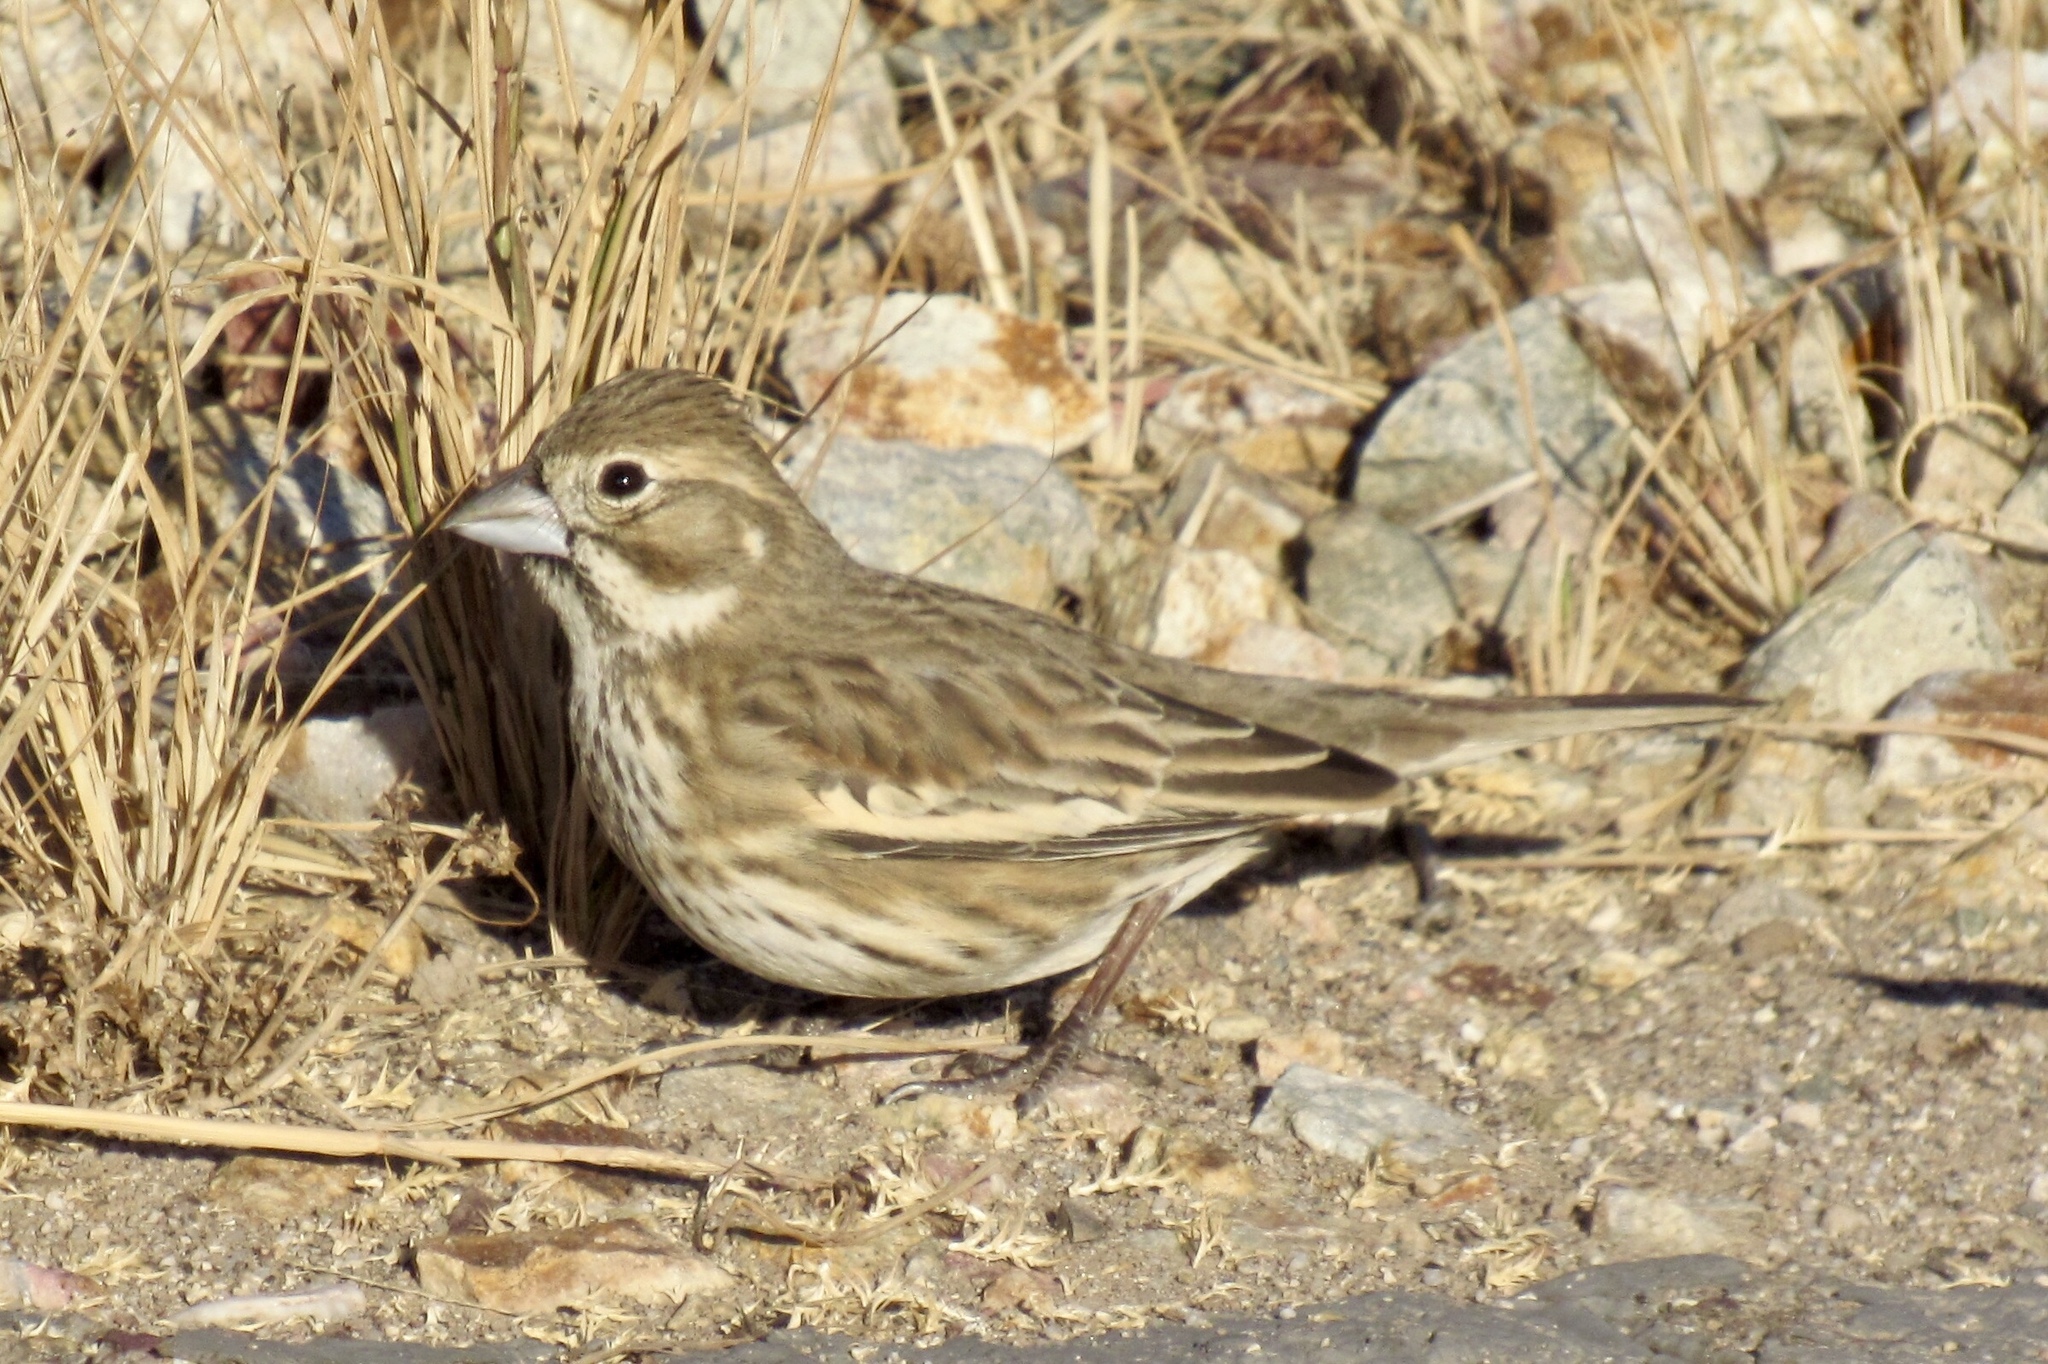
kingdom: Animalia
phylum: Chordata
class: Aves
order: Passeriformes
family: Passerellidae
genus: Calamospiza
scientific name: Calamospiza melanocorys
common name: Lark bunting
